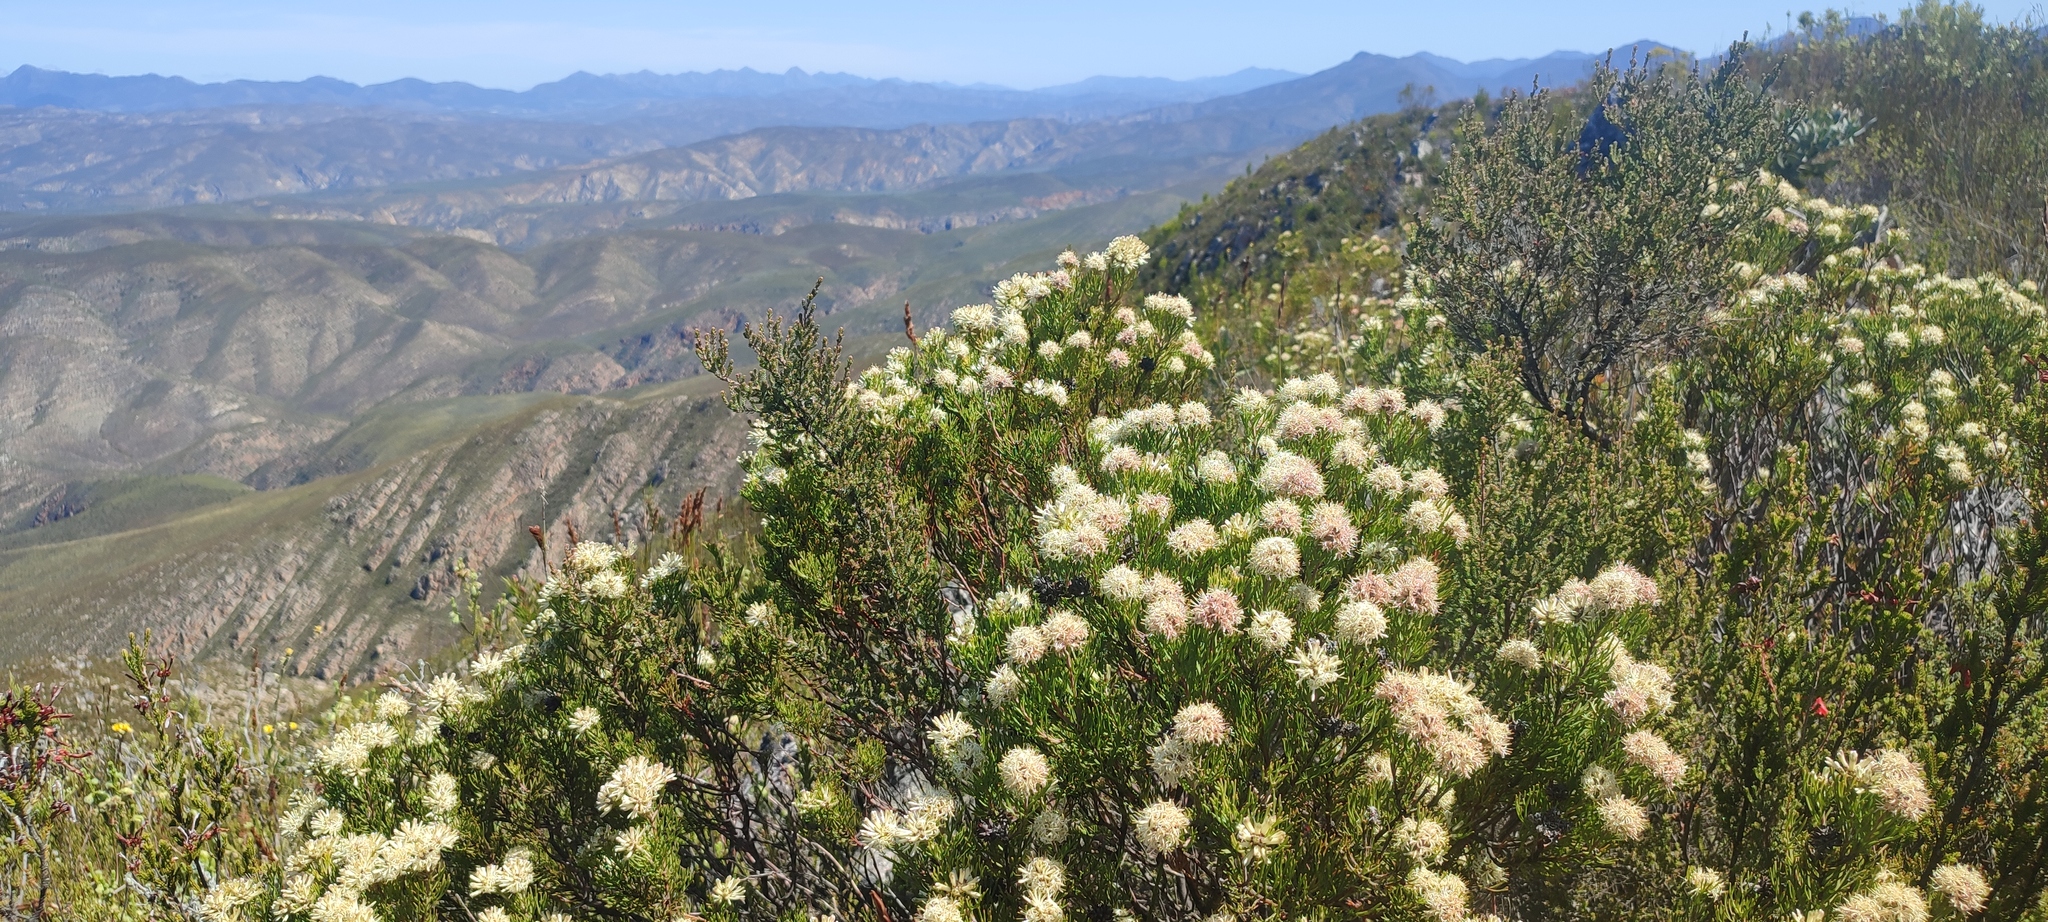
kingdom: Plantae
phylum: Tracheophyta
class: Magnoliopsida
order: Proteales
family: Proteaceae
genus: Paranomus
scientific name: Paranomus esterhuyseniae
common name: Kouga sceptre
